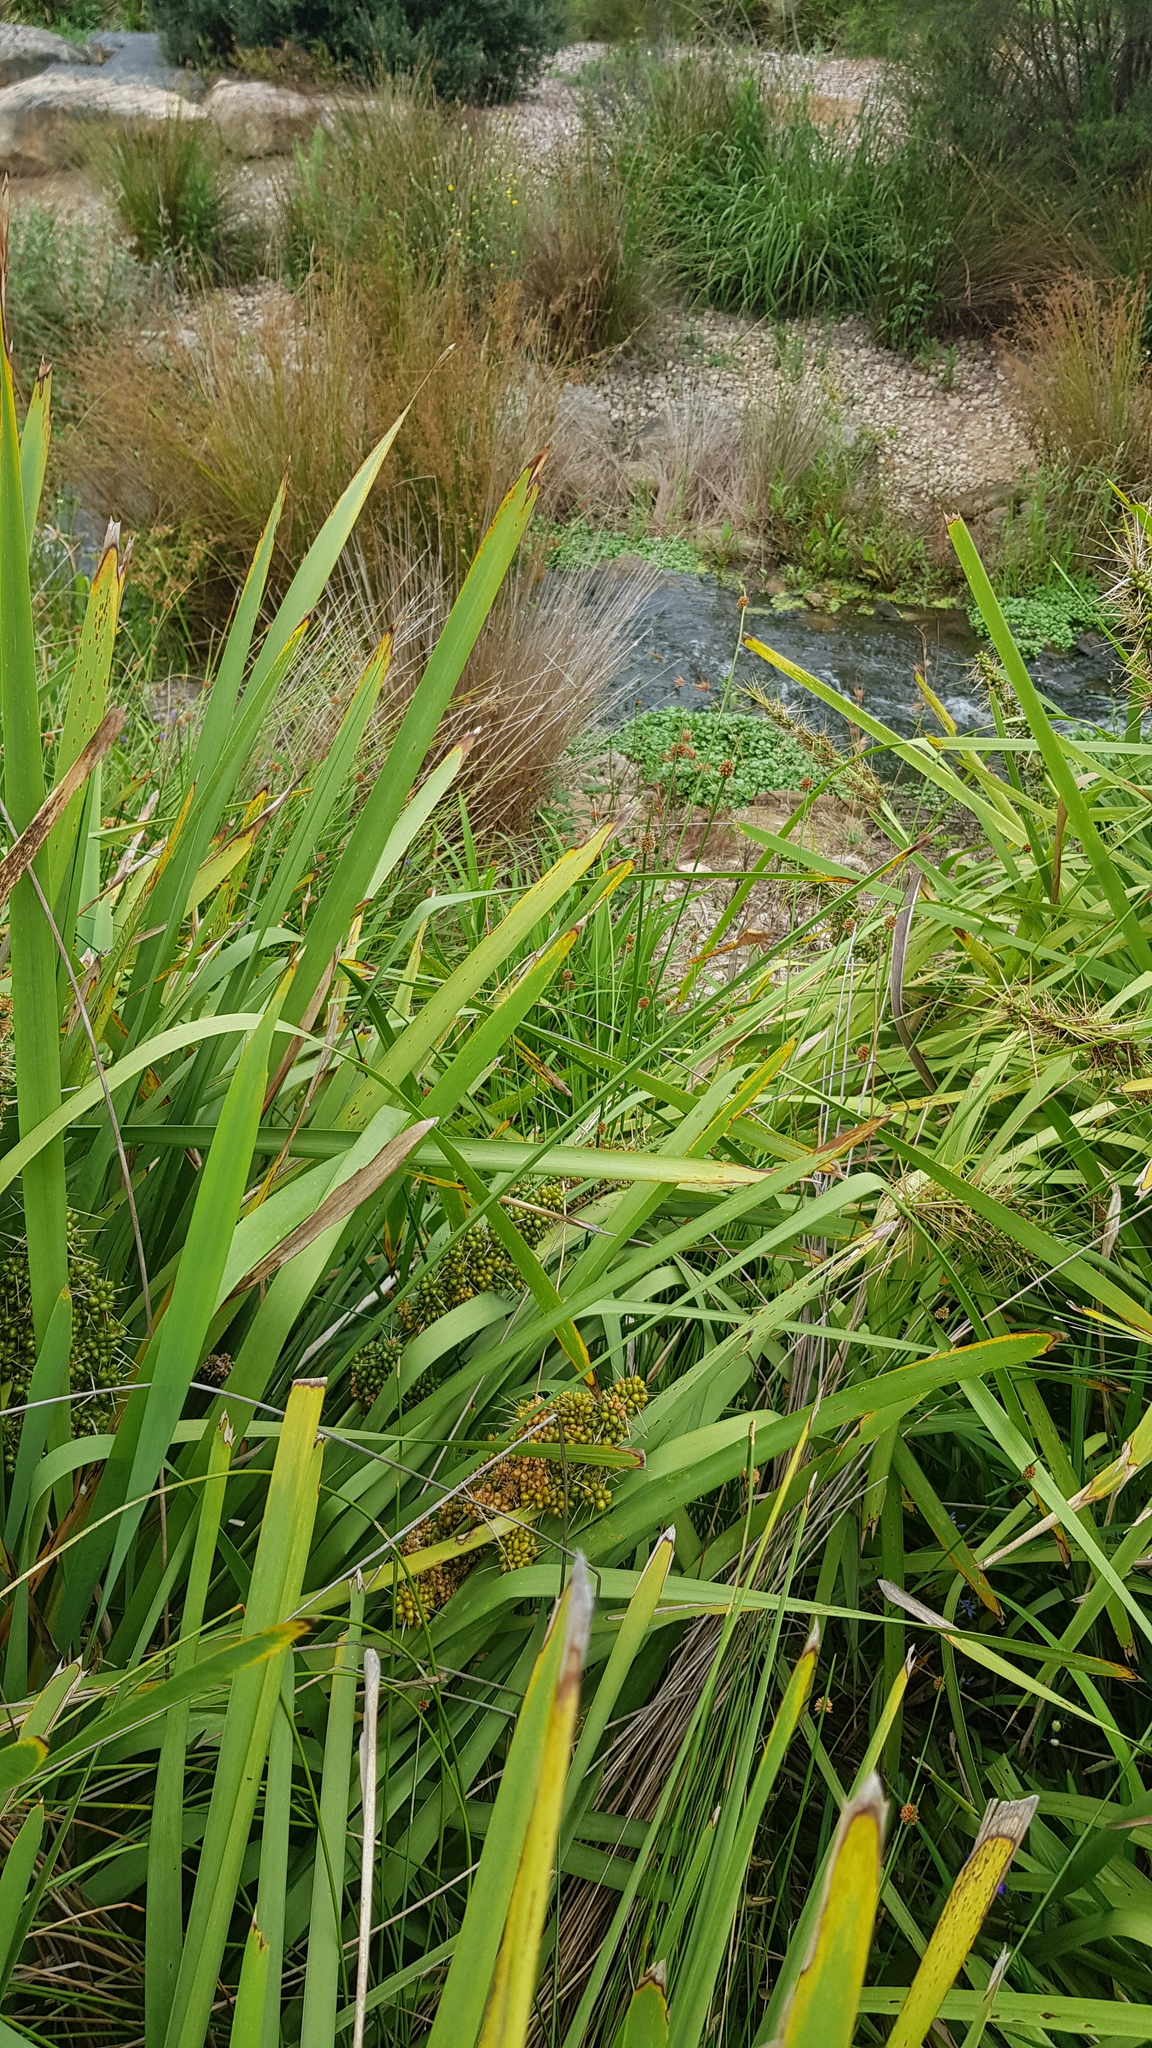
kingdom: Animalia
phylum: Arthropoda
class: Insecta
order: Odonata
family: Libellulidae
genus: Orthetrum
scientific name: Orthetrum villosovittatum
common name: Firery skimmer
